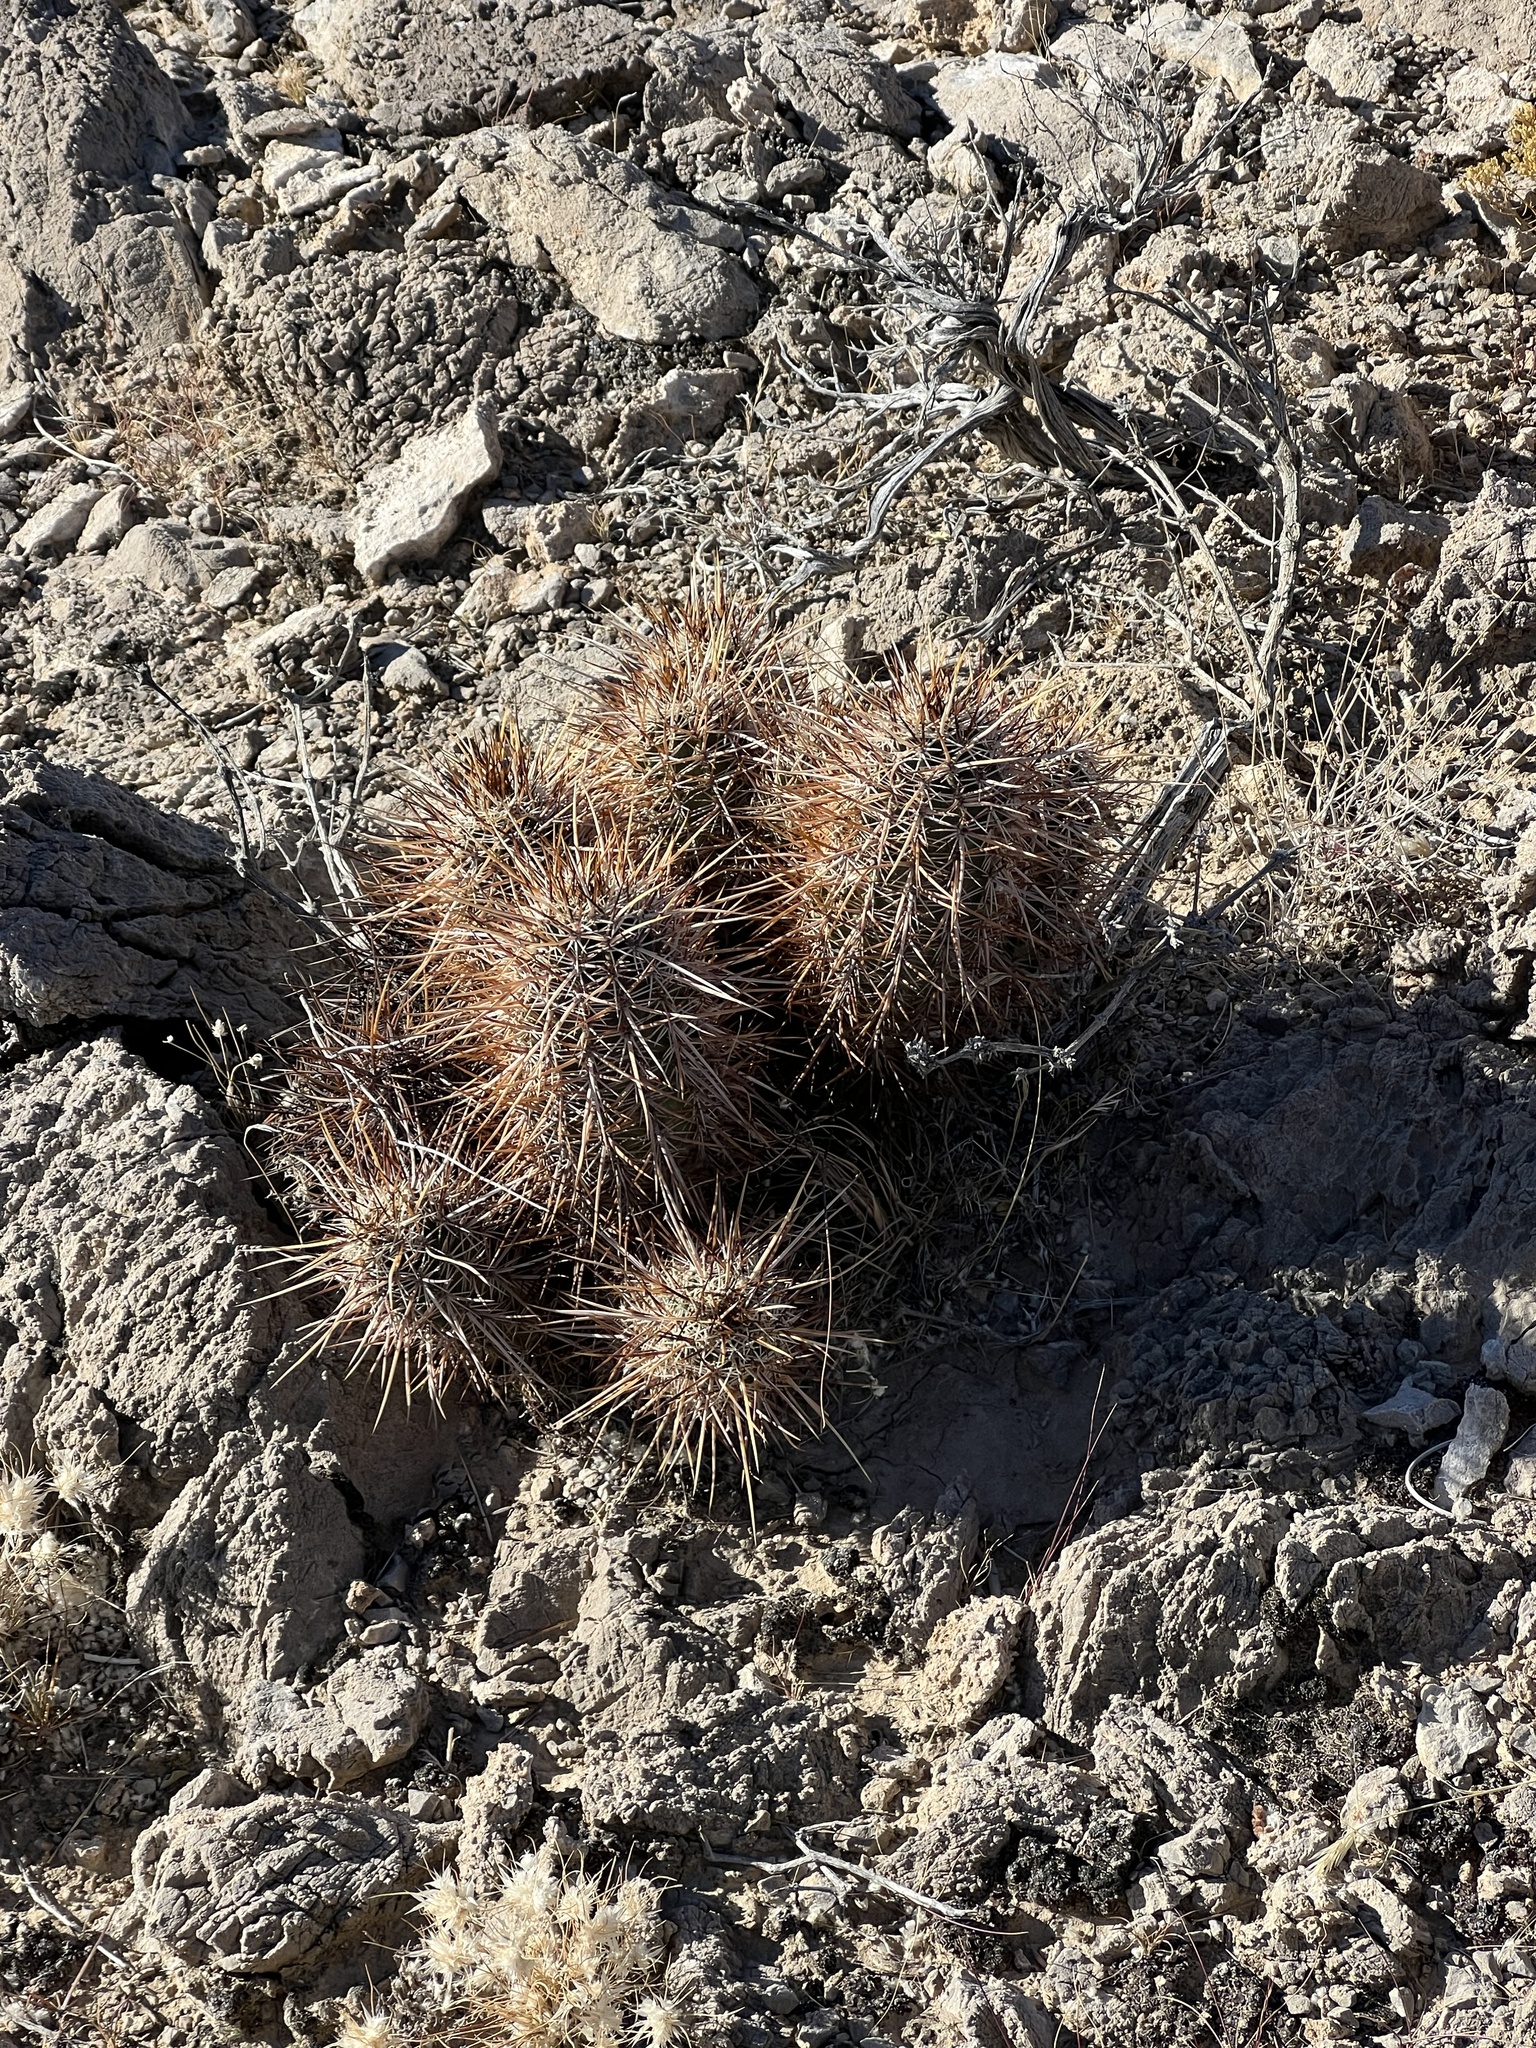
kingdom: Plantae
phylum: Tracheophyta
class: Magnoliopsida
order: Caryophyllales
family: Cactaceae
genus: Echinocereus
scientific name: Echinocereus engelmannii
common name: Engelmann's hedgehog cactus
